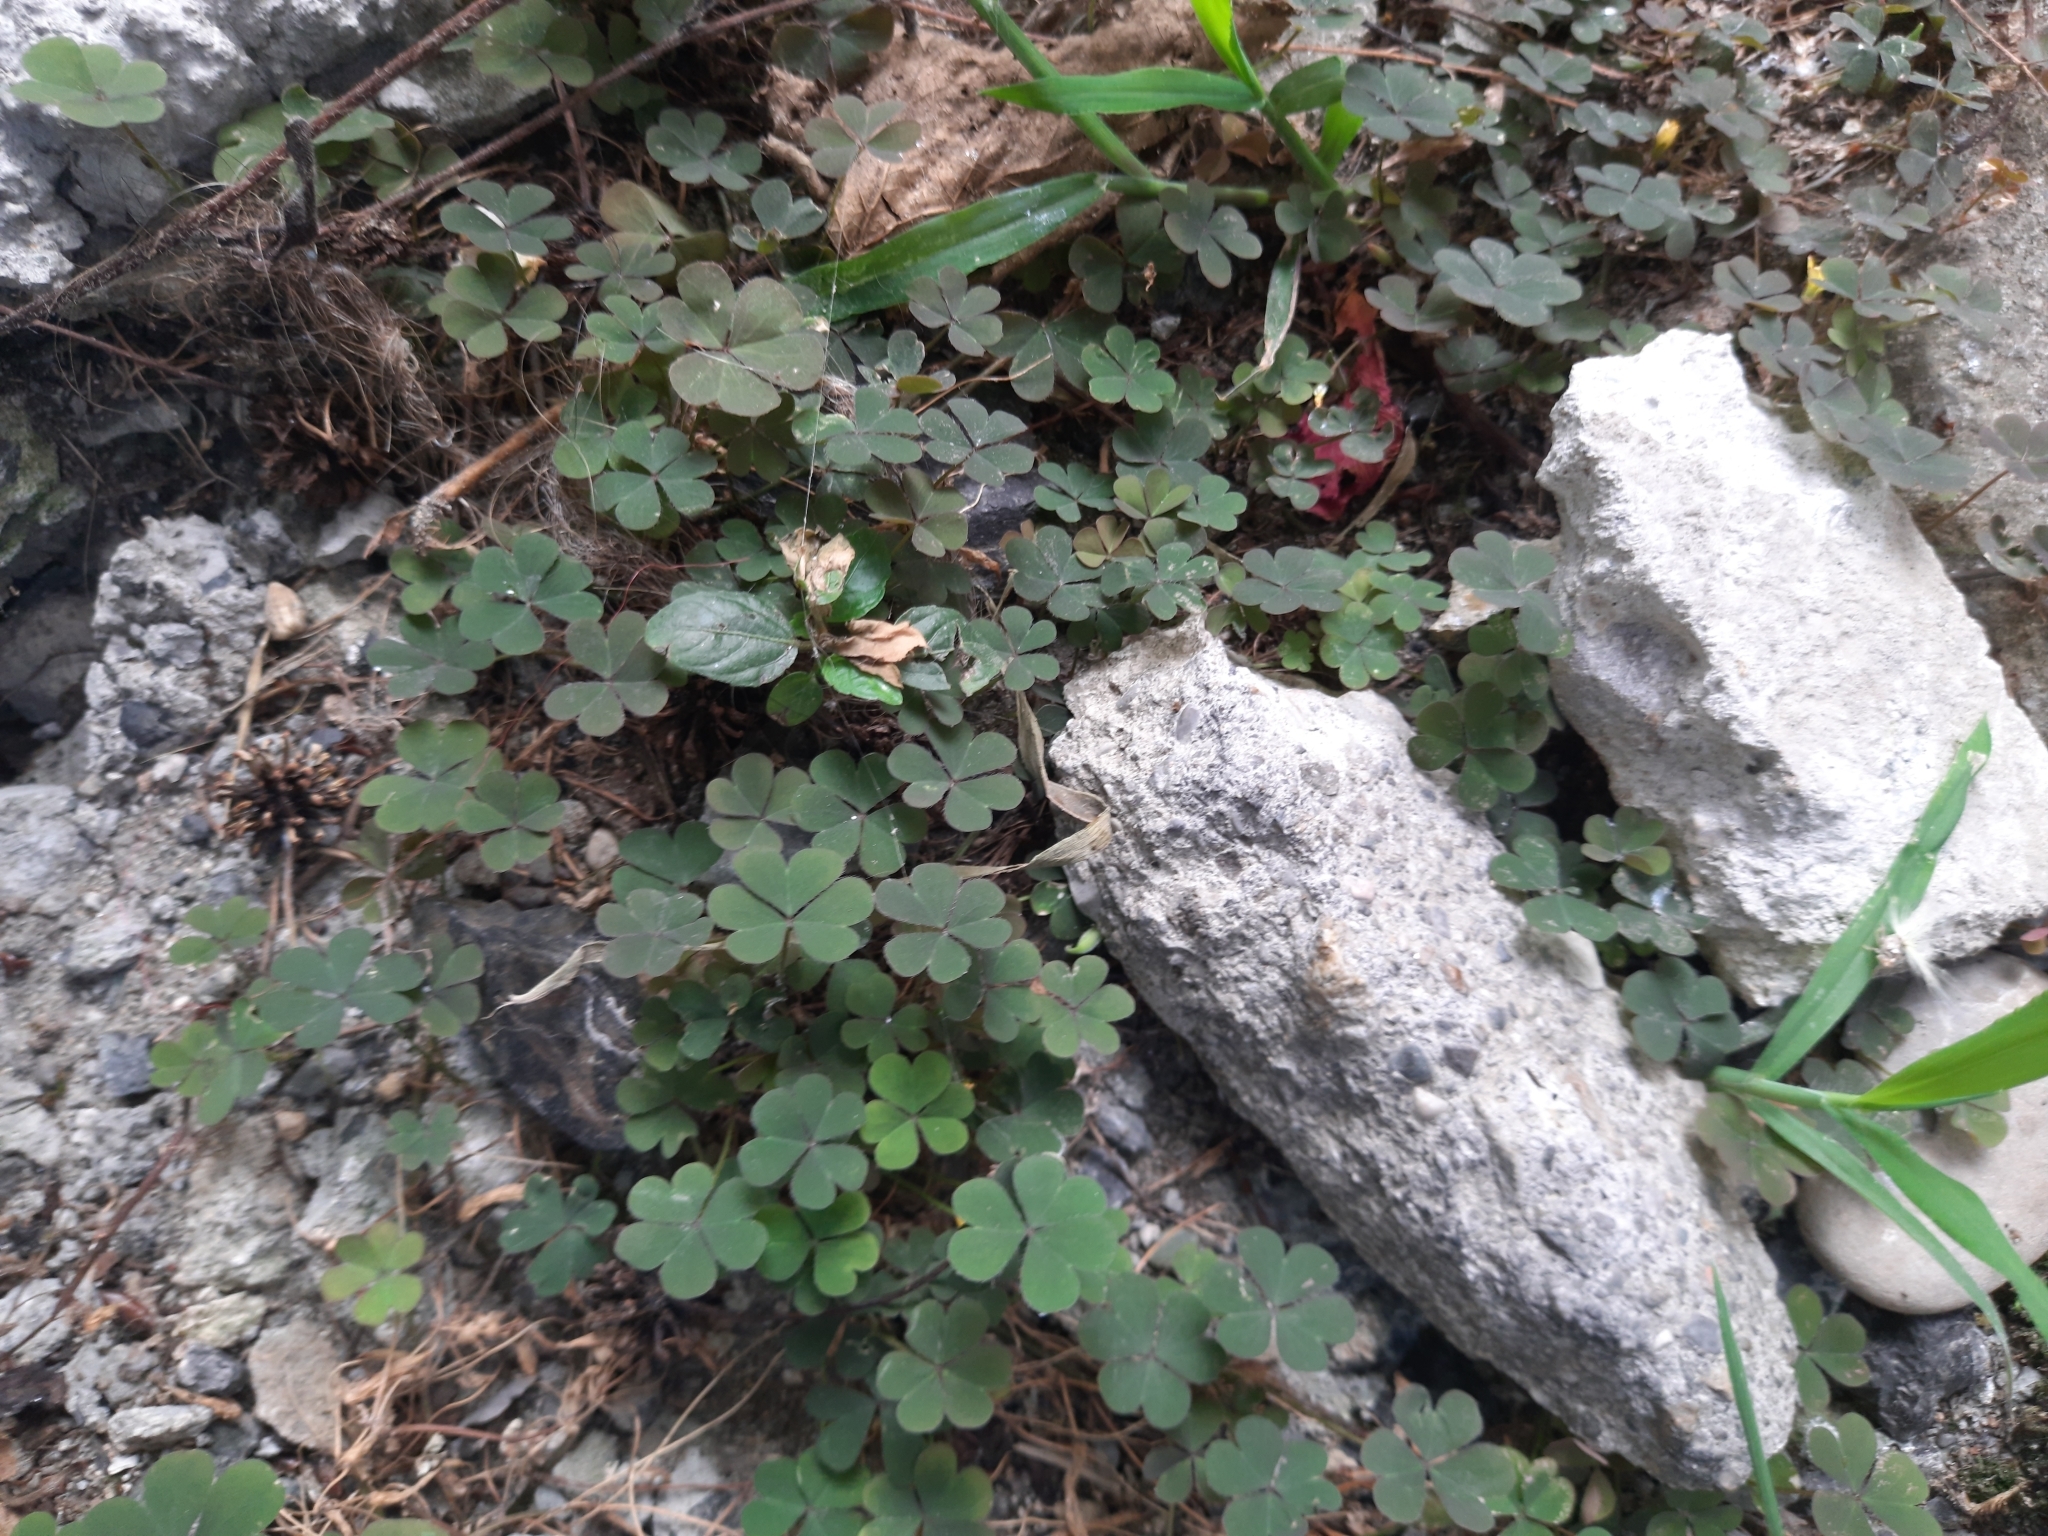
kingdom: Plantae
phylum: Tracheophyta
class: Magnoliopsida
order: Oxalidales
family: Oxalidaceae
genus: Oxalis
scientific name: Oxalis corniculata
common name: Procumbent yellow-sorrel
